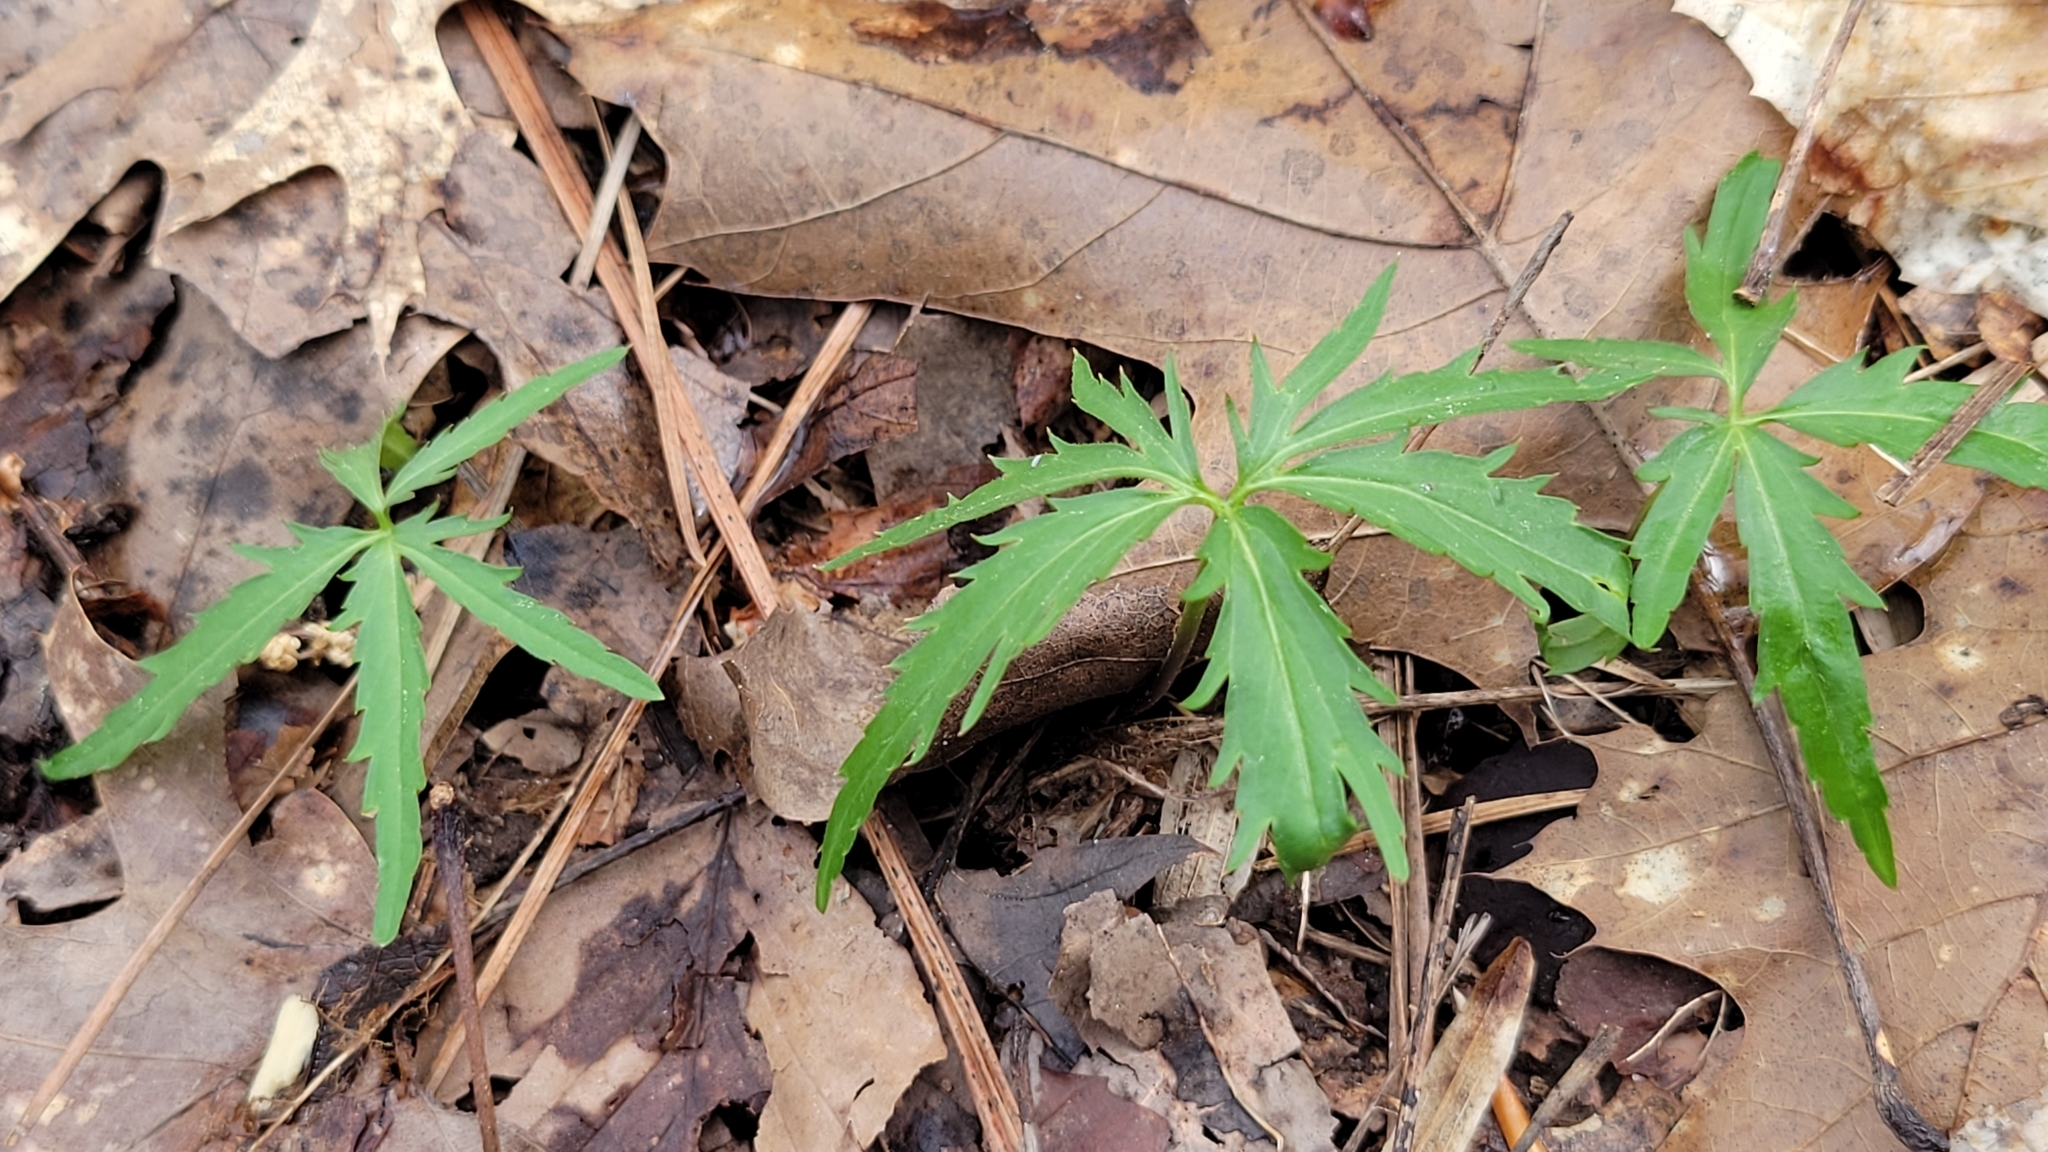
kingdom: Plantae
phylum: Tracheophyta
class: Magnoliopsida
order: Brassicales
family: Brassicaceae
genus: Cardamine
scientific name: Cardamine concatenata
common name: Cut-leaf toothcup
